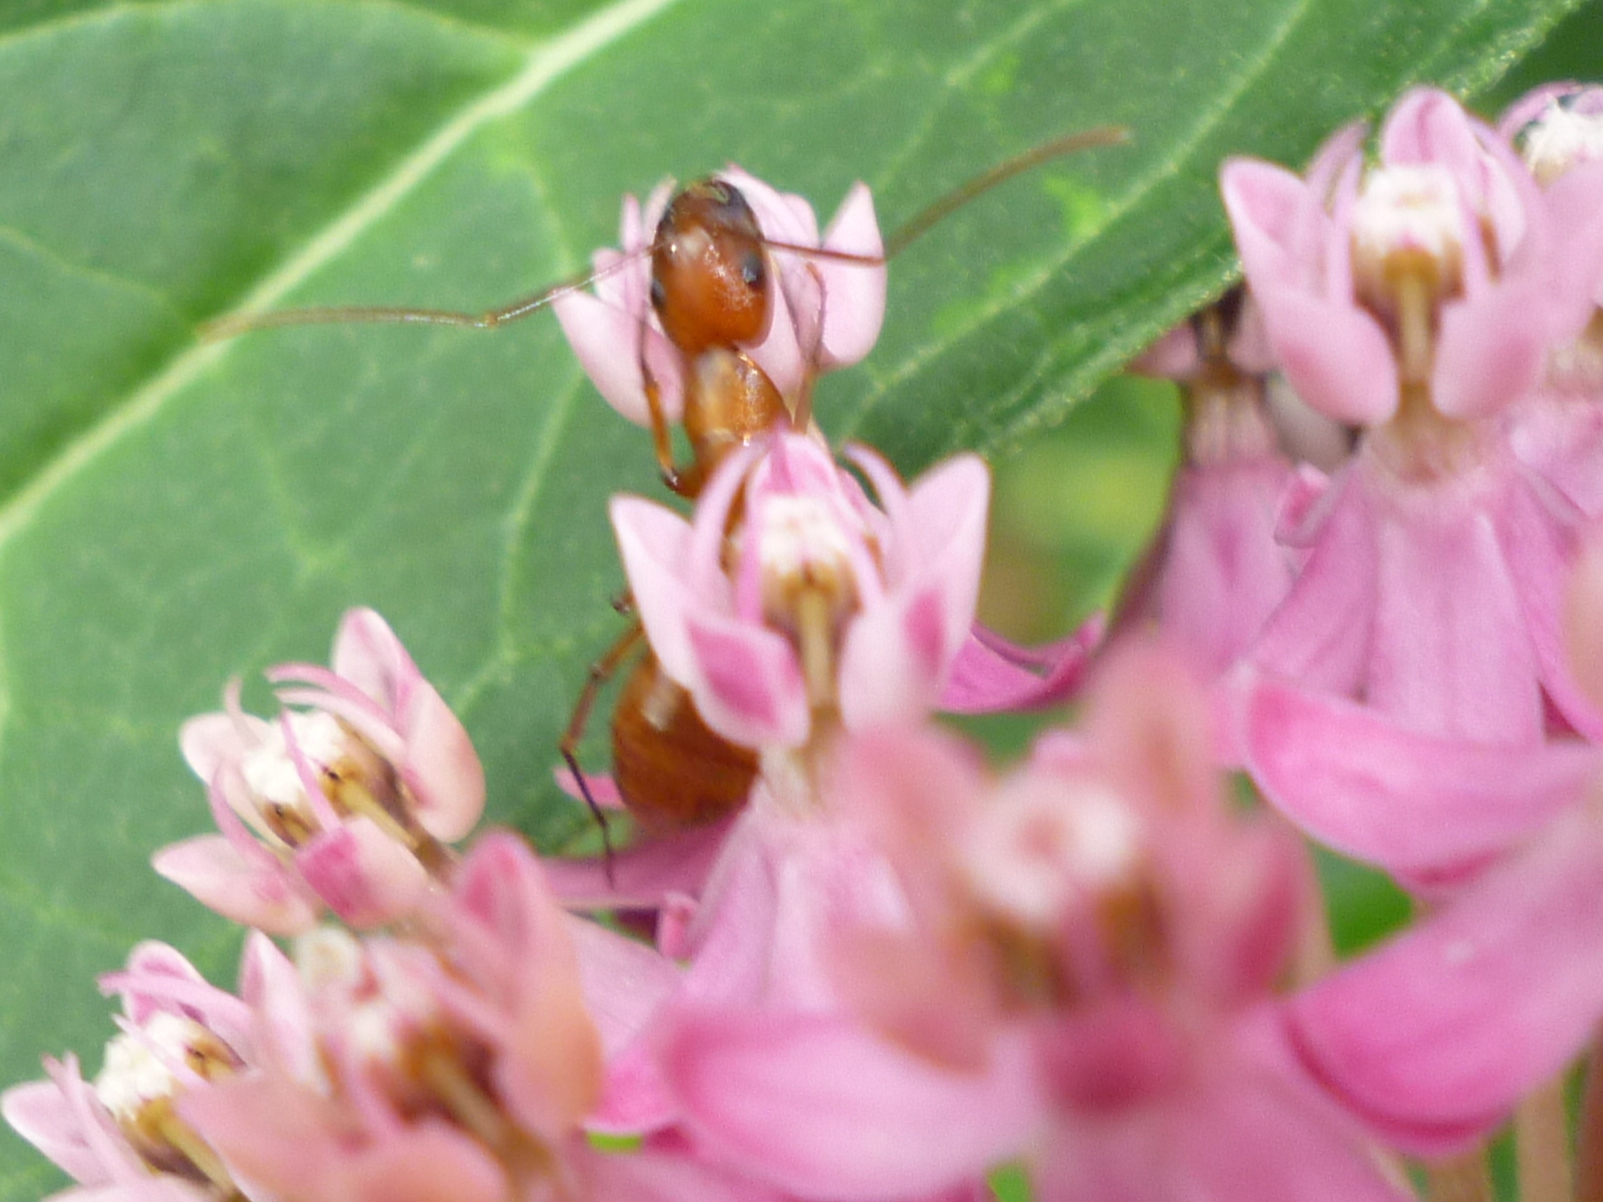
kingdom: Animalia
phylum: Arthropoda
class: Insecta
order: Hymenoptera
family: Formicidae
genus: Camponotus
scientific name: Camponotus castaneus
